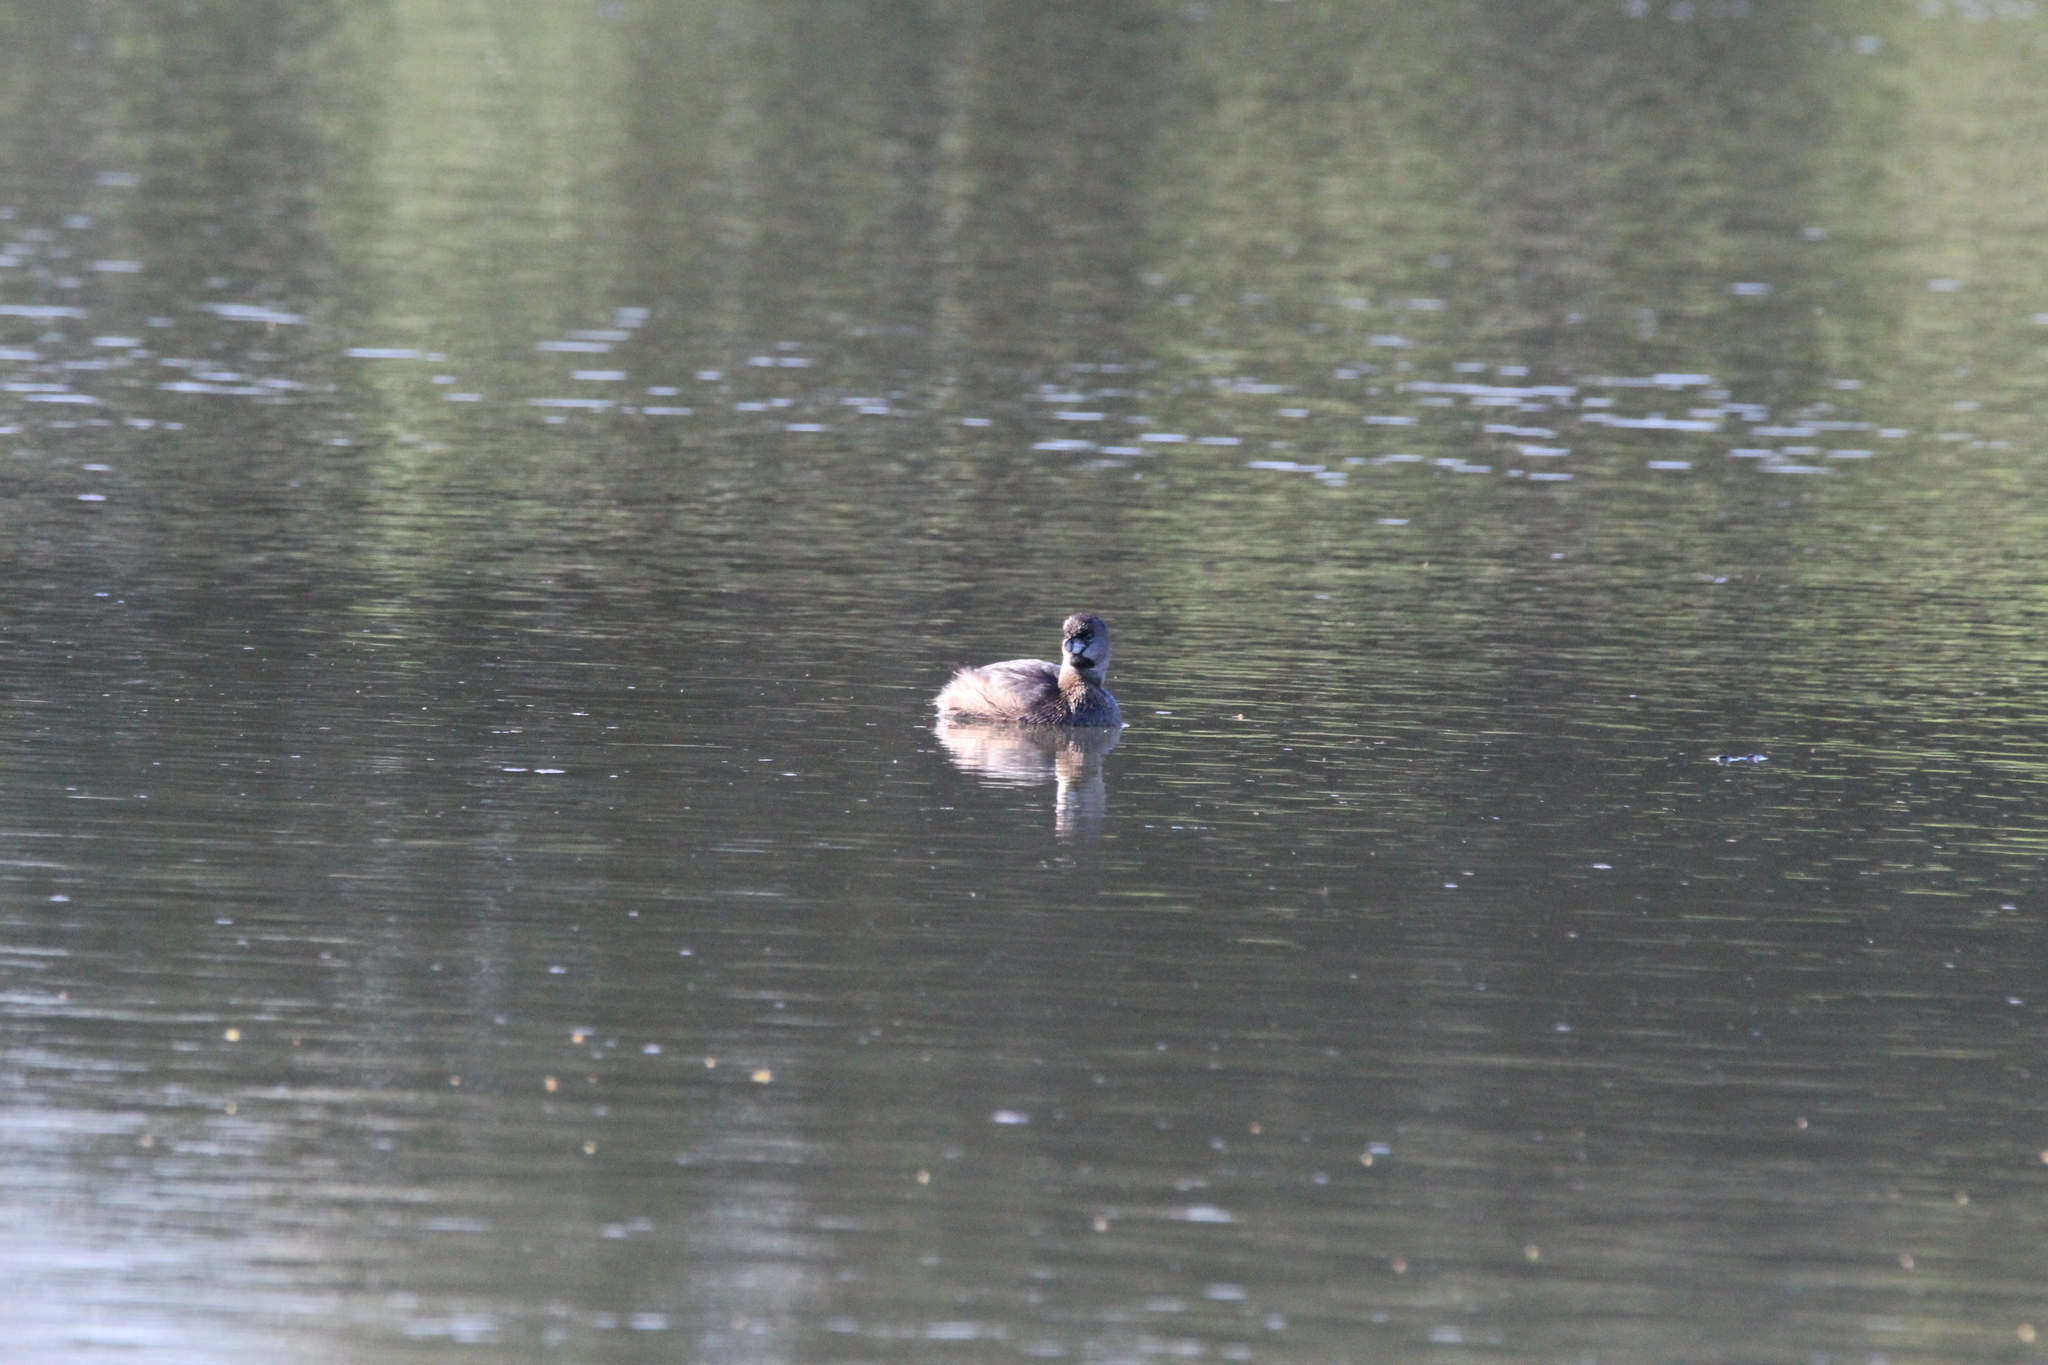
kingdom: Animalia
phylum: Chordata
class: Aves
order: Podicipediformes
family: Podicipedidae
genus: Podilymbus
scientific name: Podilymbus podiceps
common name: Pied-billed grebe
